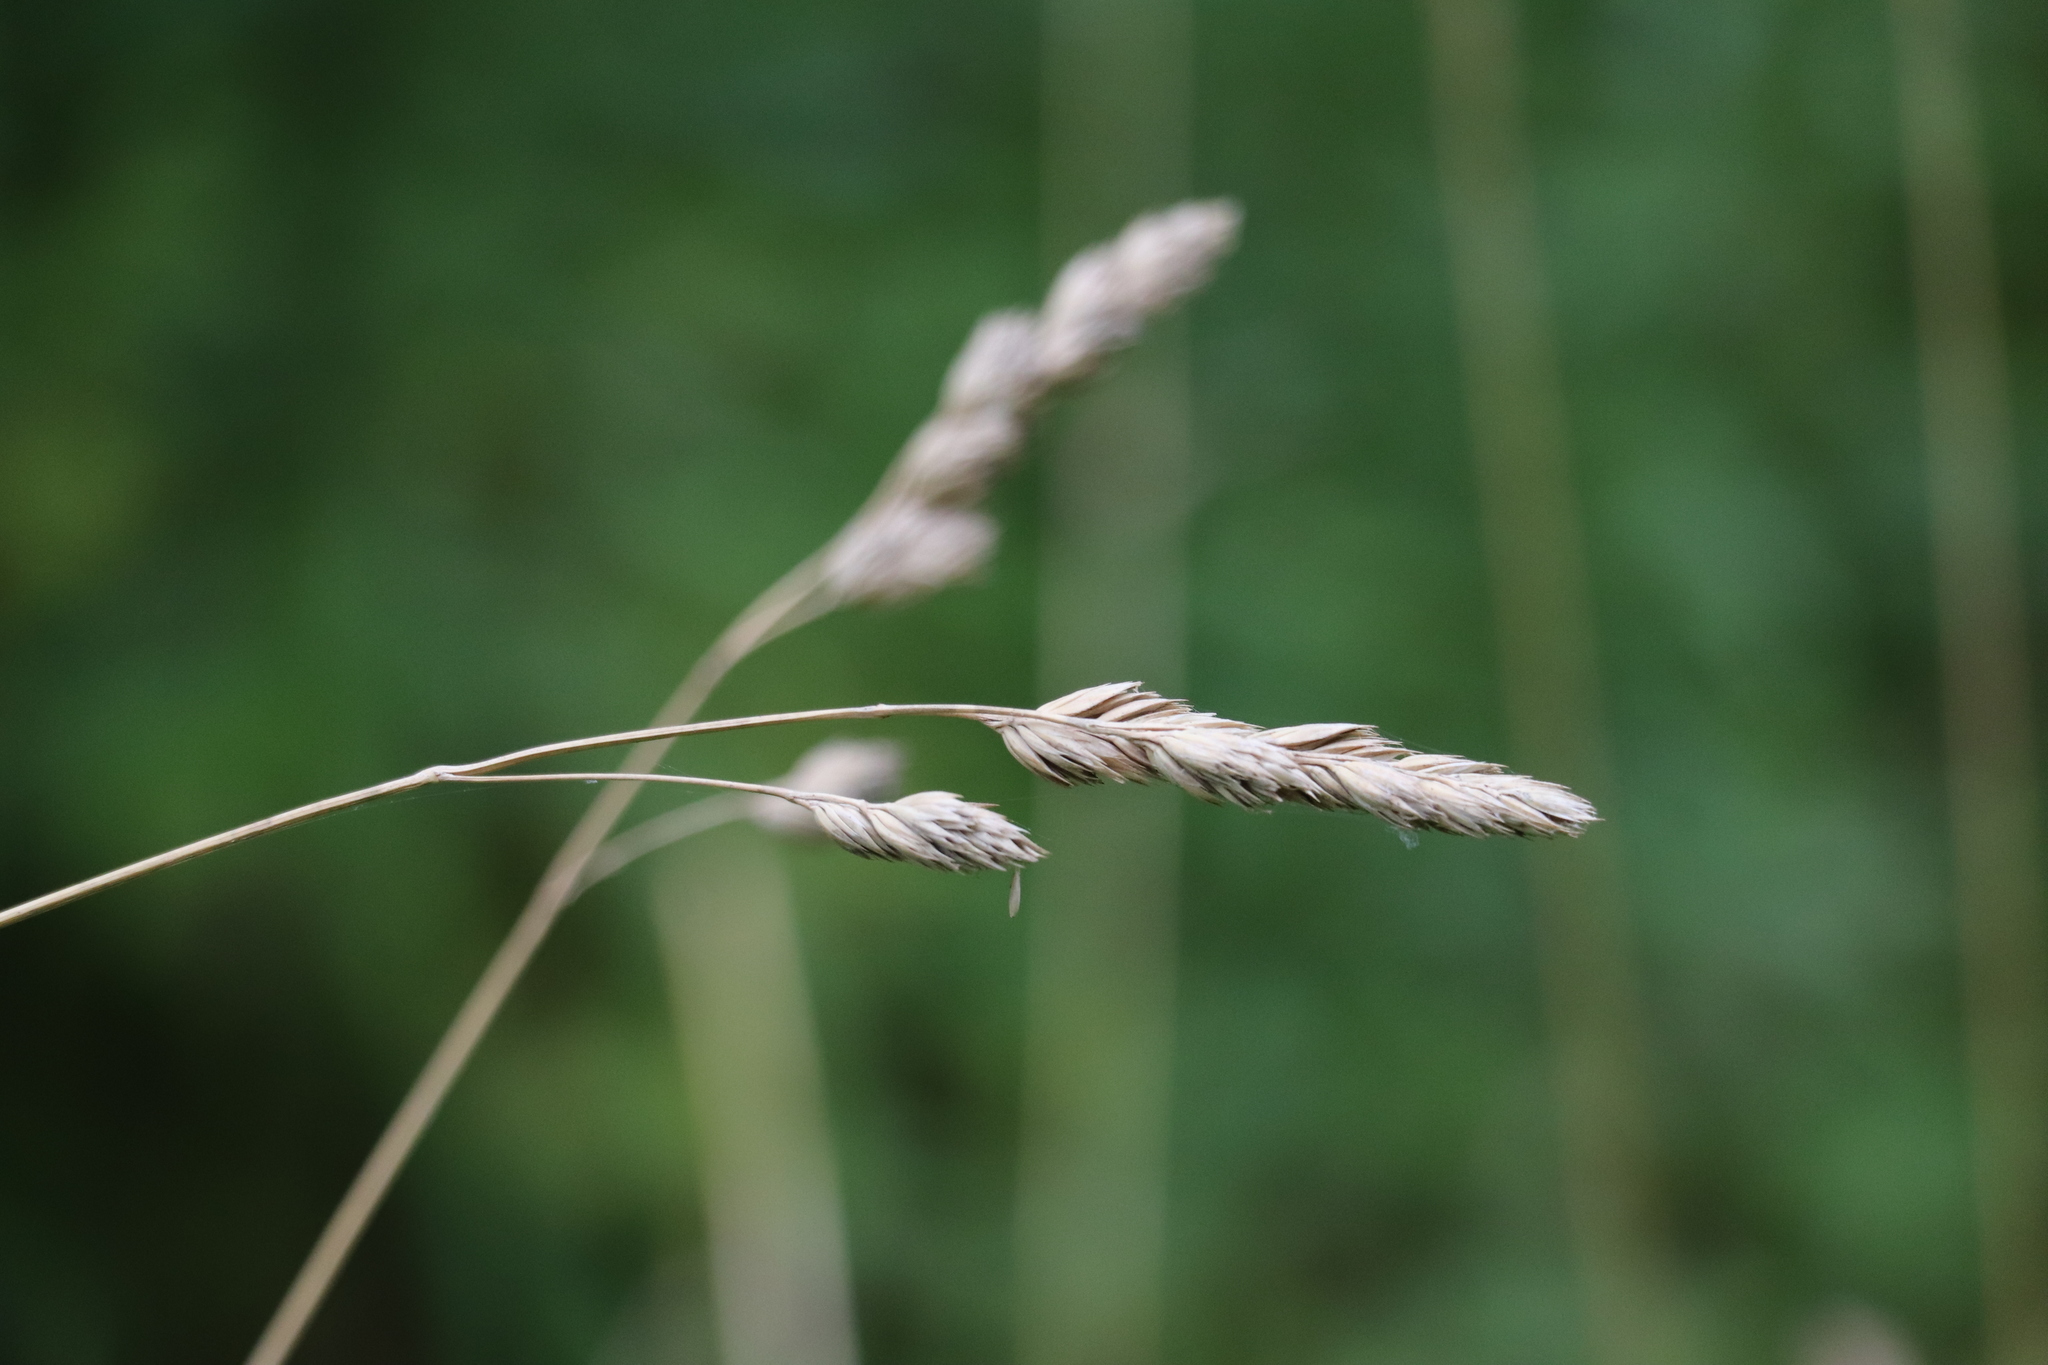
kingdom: Plantae
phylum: Tracheophyta
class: Liliopsida
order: Poales
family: Poaceae
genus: Dactylis
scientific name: Dactylis glomerata
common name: Orchardgrass
